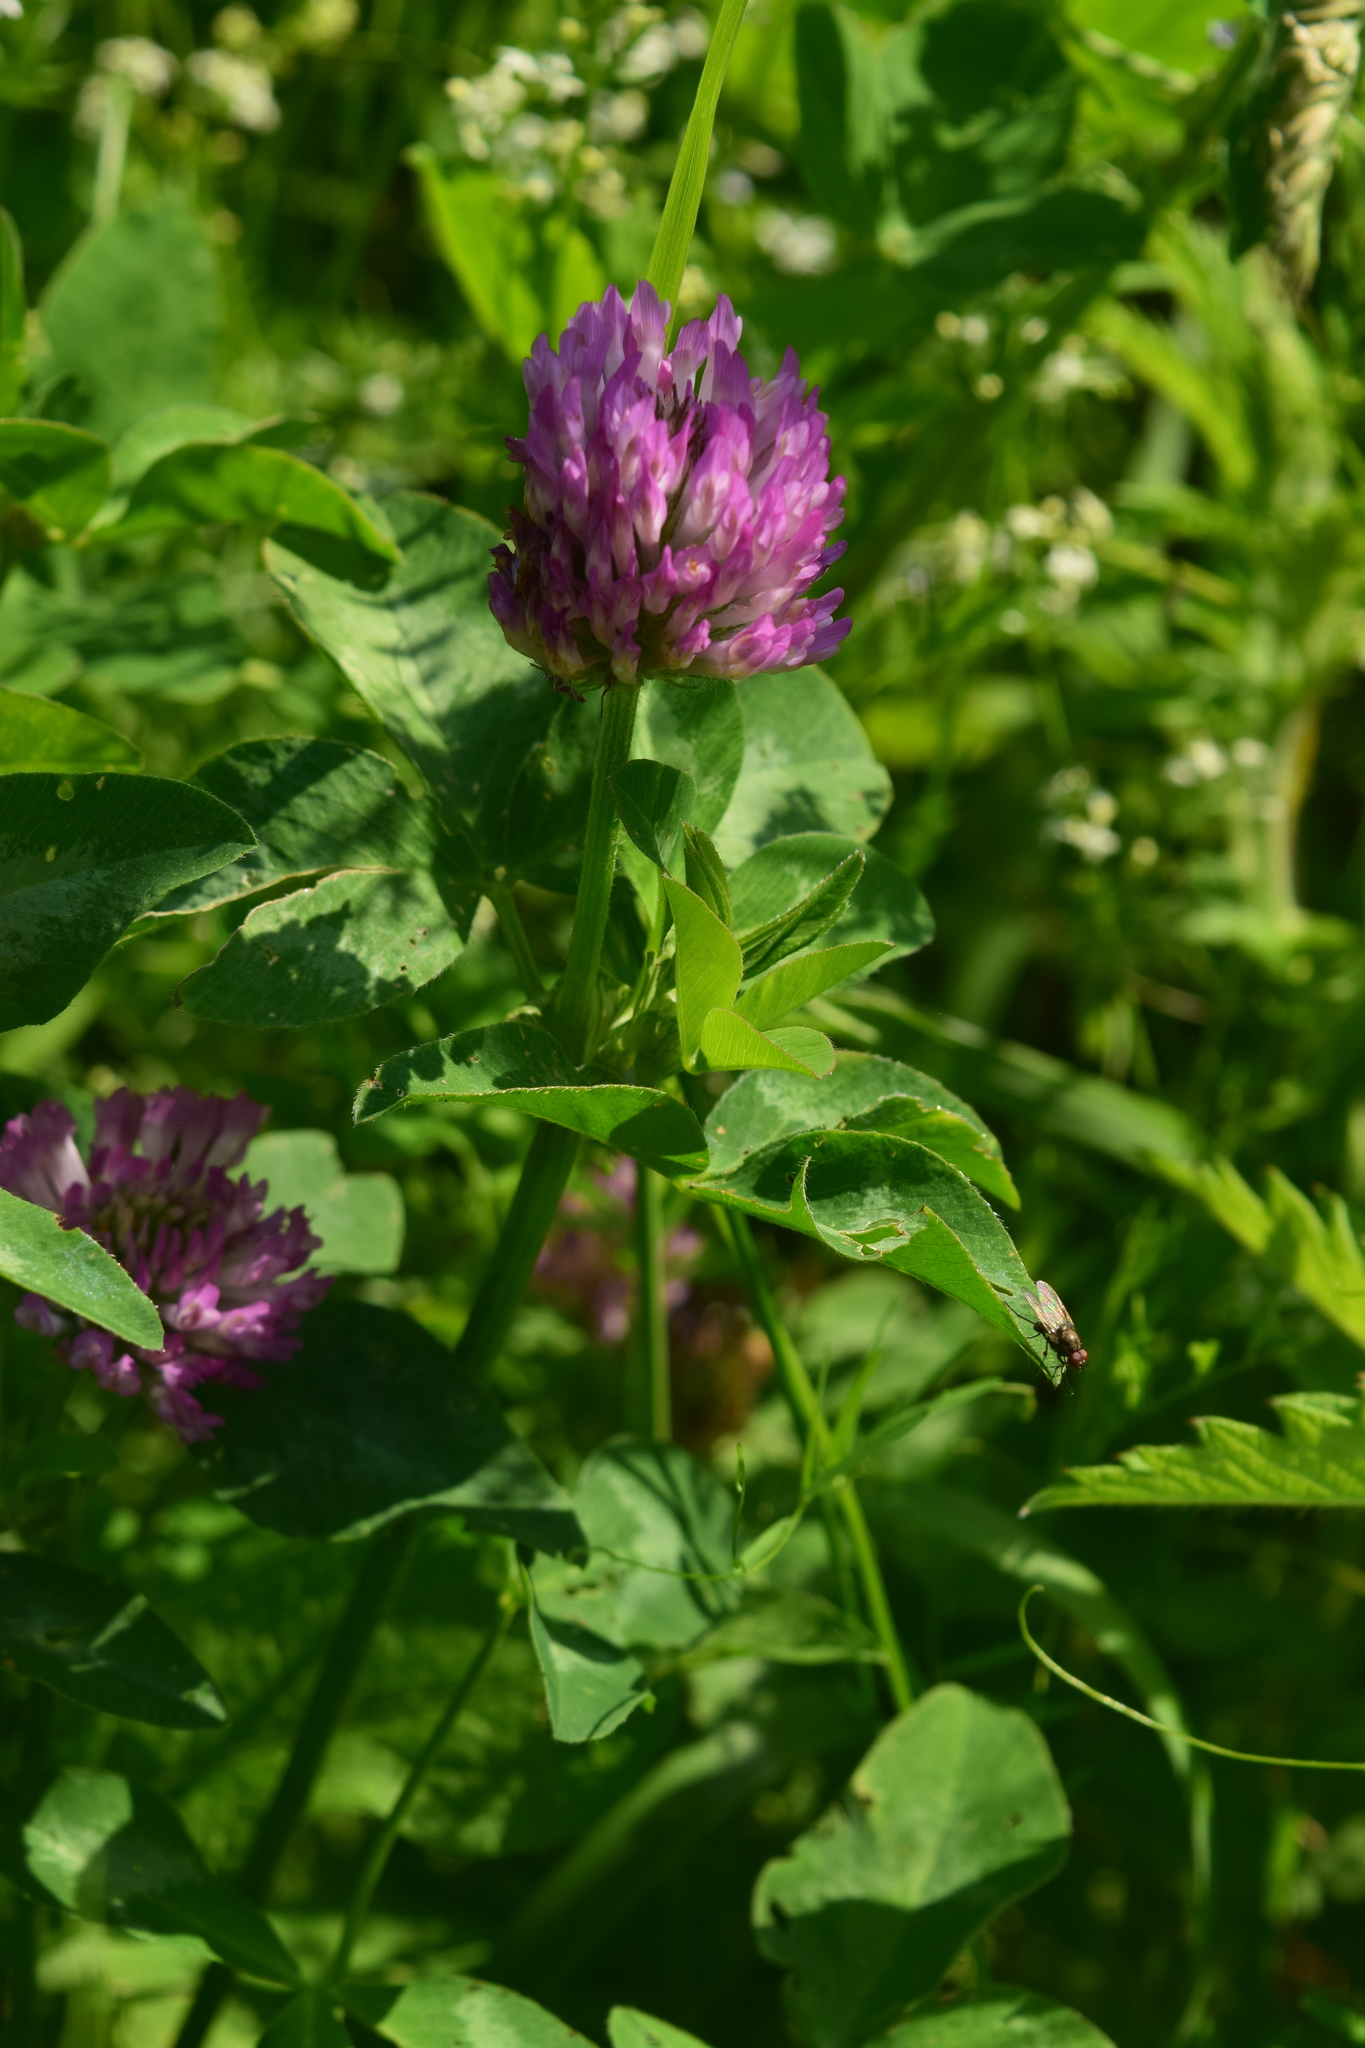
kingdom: Plantae
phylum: Tracheophyta
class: Magnoliopsida
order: Fabales
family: Fabaceae
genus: Trifolium
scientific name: Trifolium pratense
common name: Red clover
